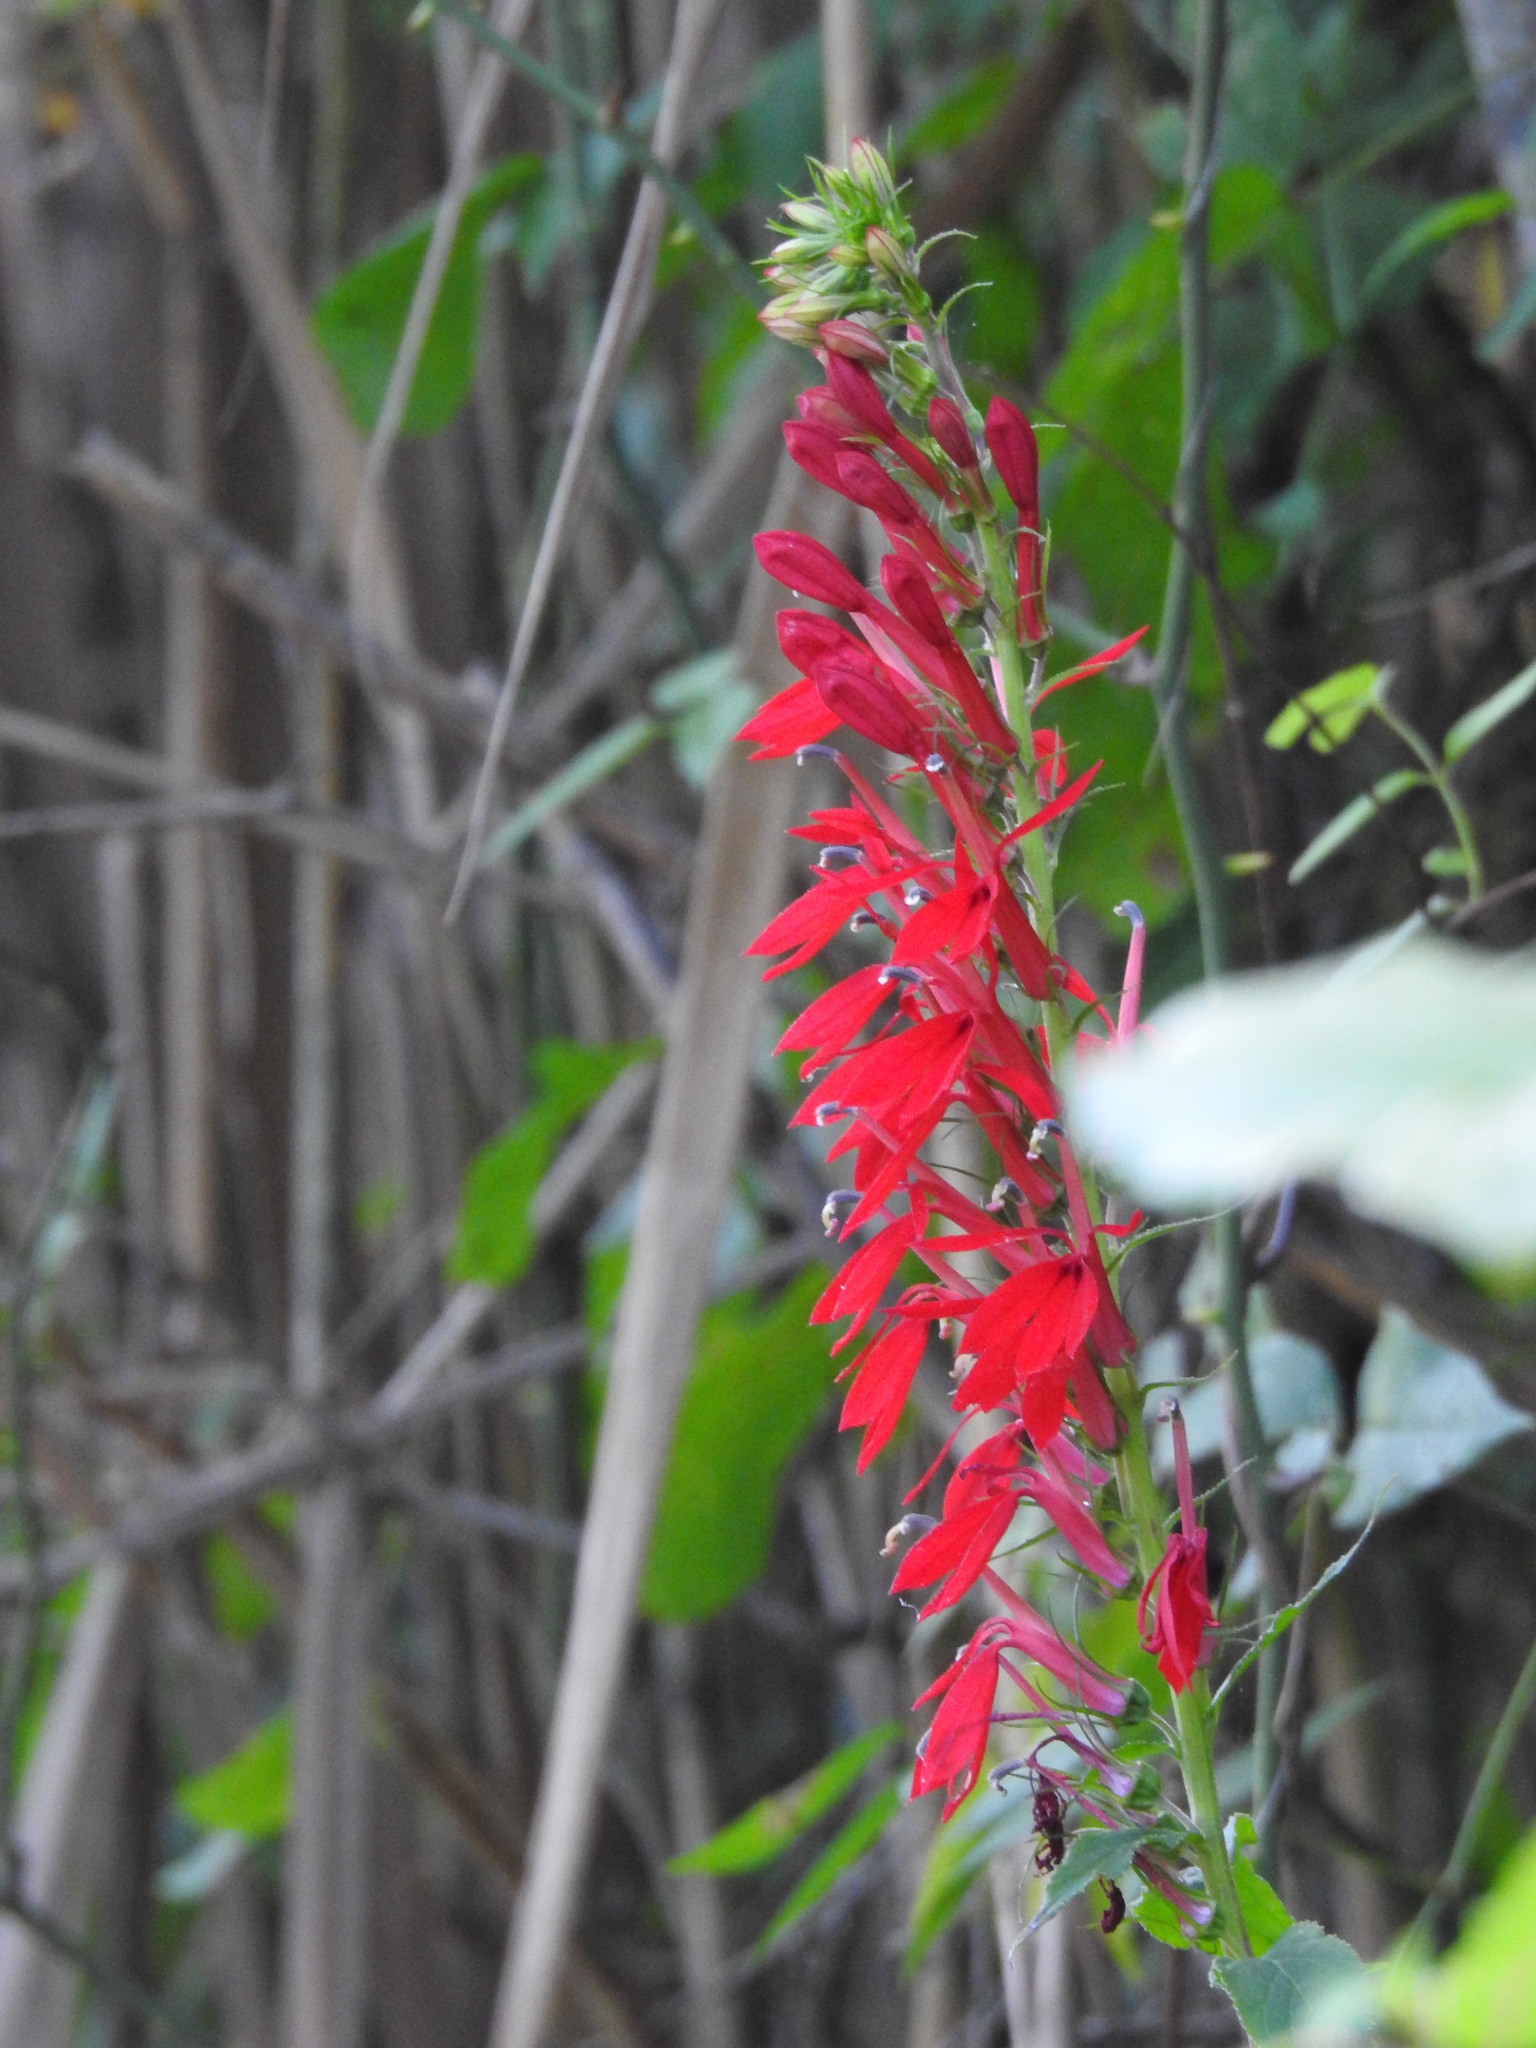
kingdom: Plantae
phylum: Tracheophyta
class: Magnoliopsida
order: Asterales
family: Campanulaceae
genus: Lobelia
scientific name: Lobelia cardinalis
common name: Cardinal flower
